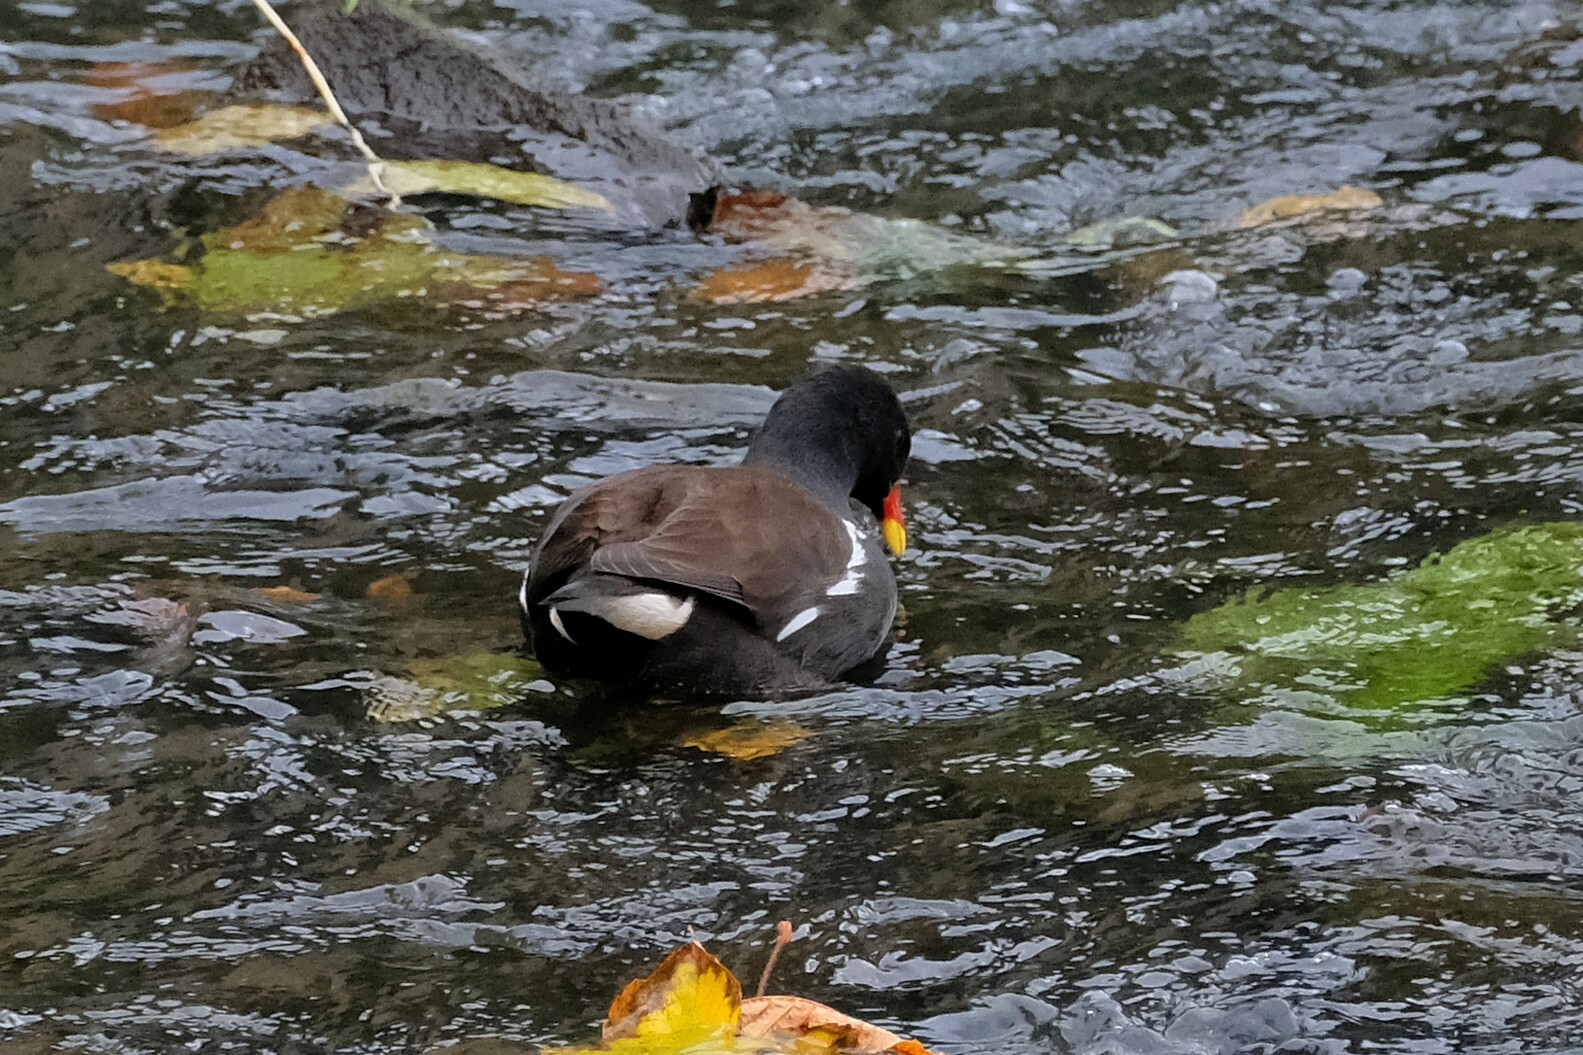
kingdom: Animalia
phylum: Chordata
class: Aves
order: Gruiformes
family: Rallidae
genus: Gallinula
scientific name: Gallinula chloropus
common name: Common moorhen
